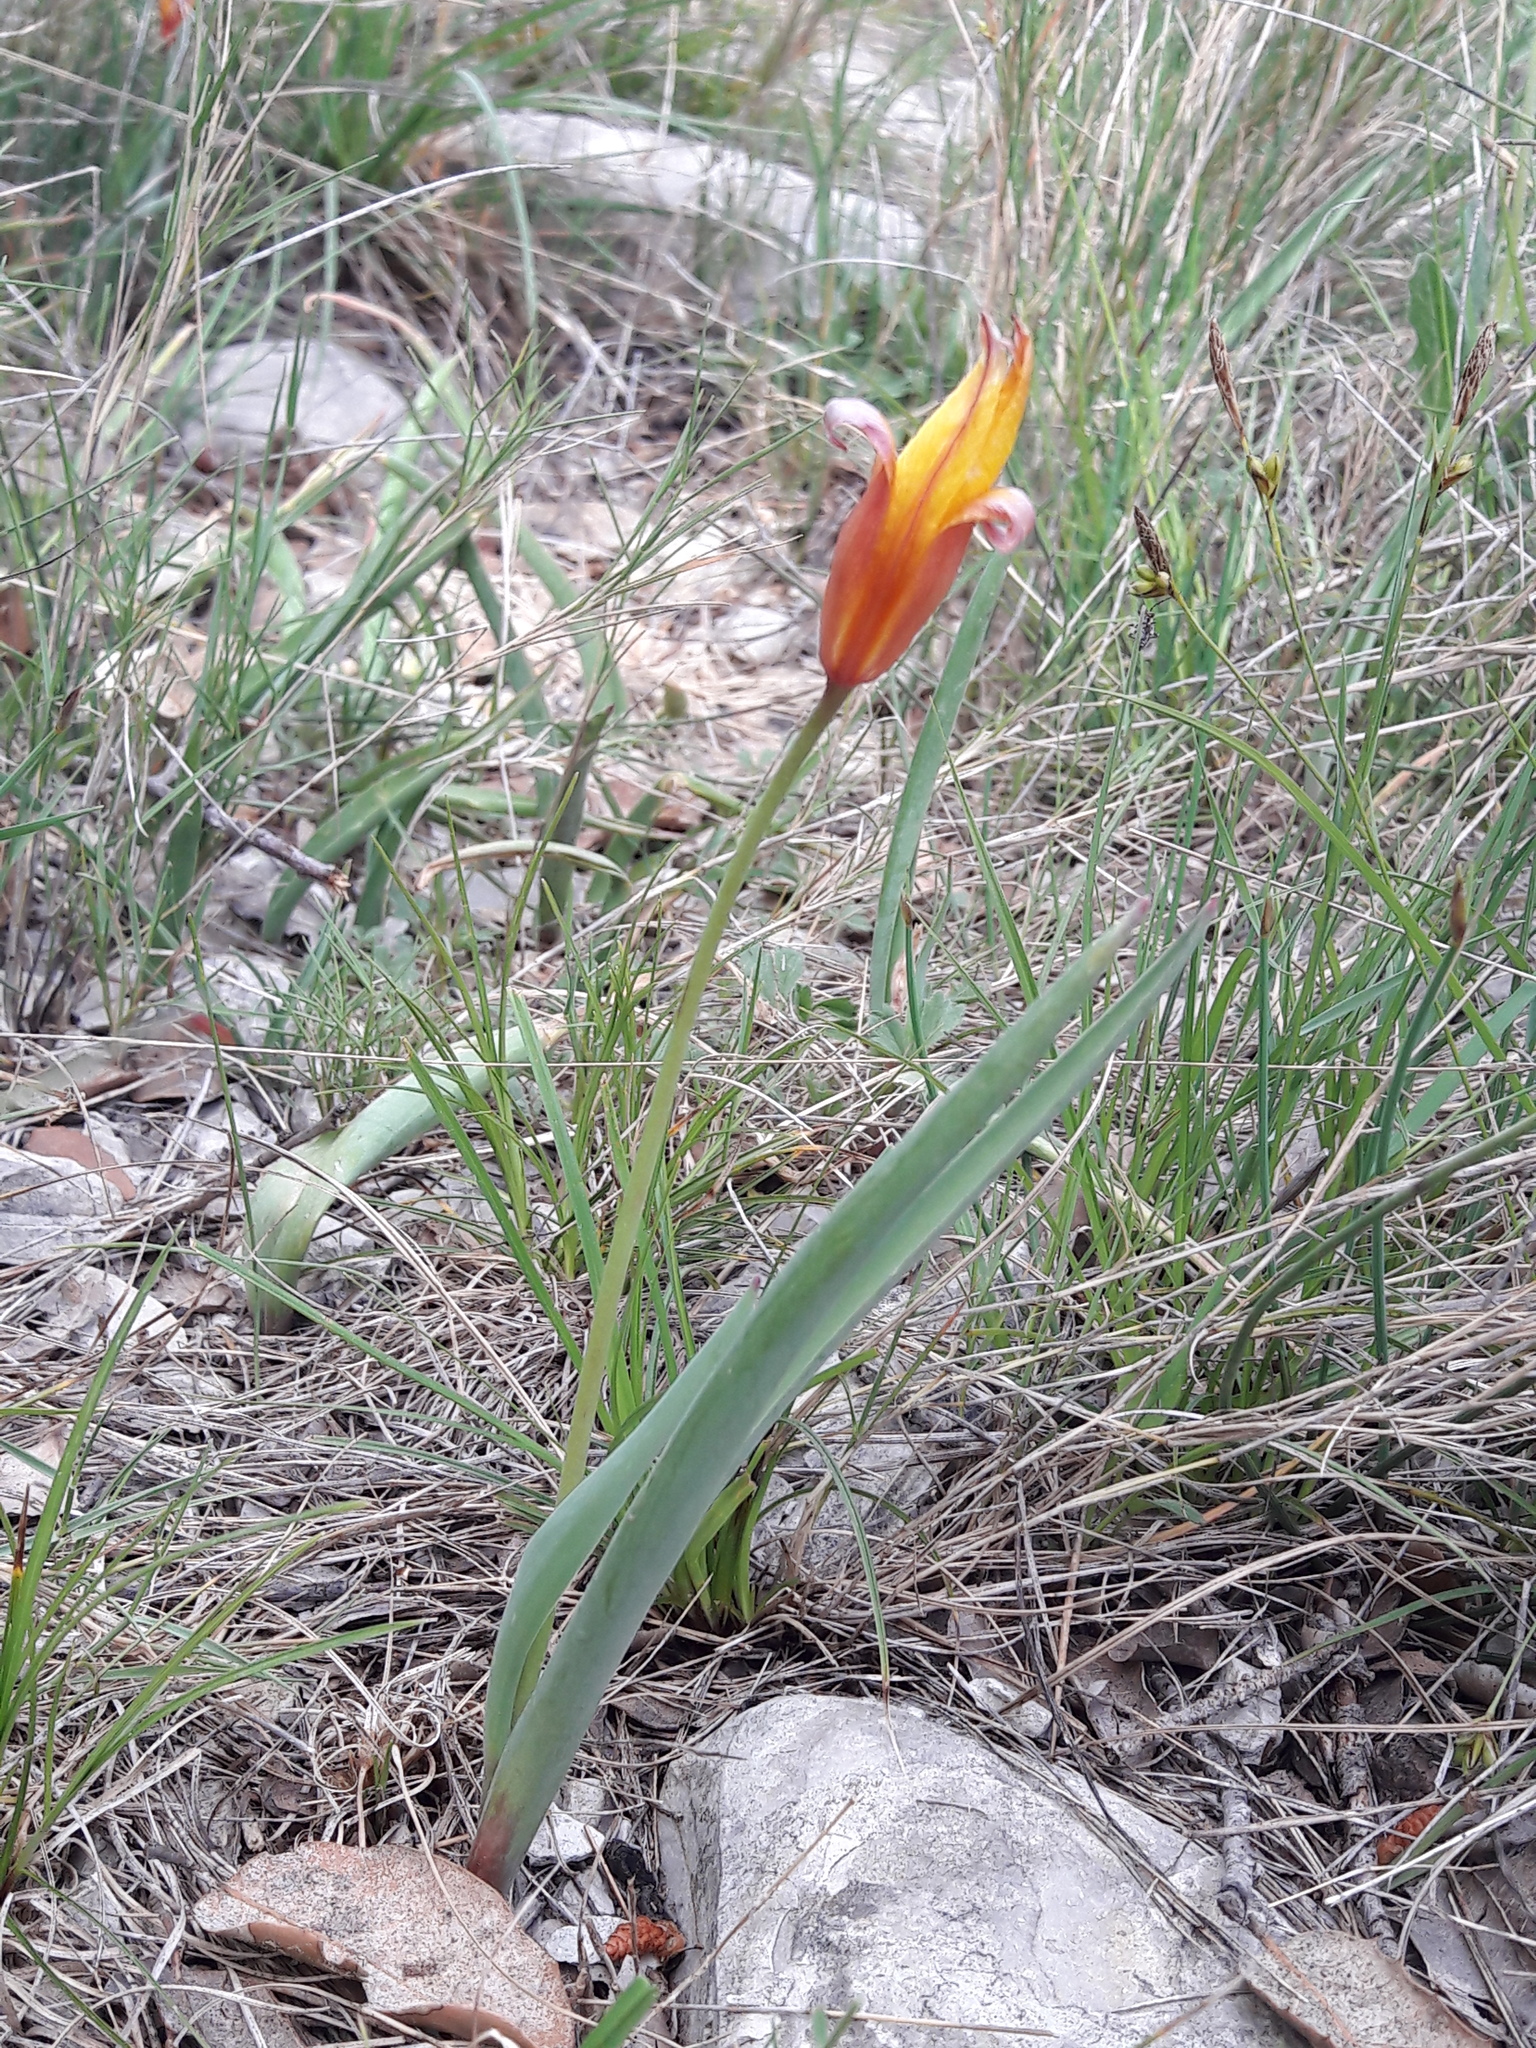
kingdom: Plantae
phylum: Tracheophyta
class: Liliopsida
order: Liliales
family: Liliaceae
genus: Tulipa
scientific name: Tulipa sylvestris
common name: Wild tulip
